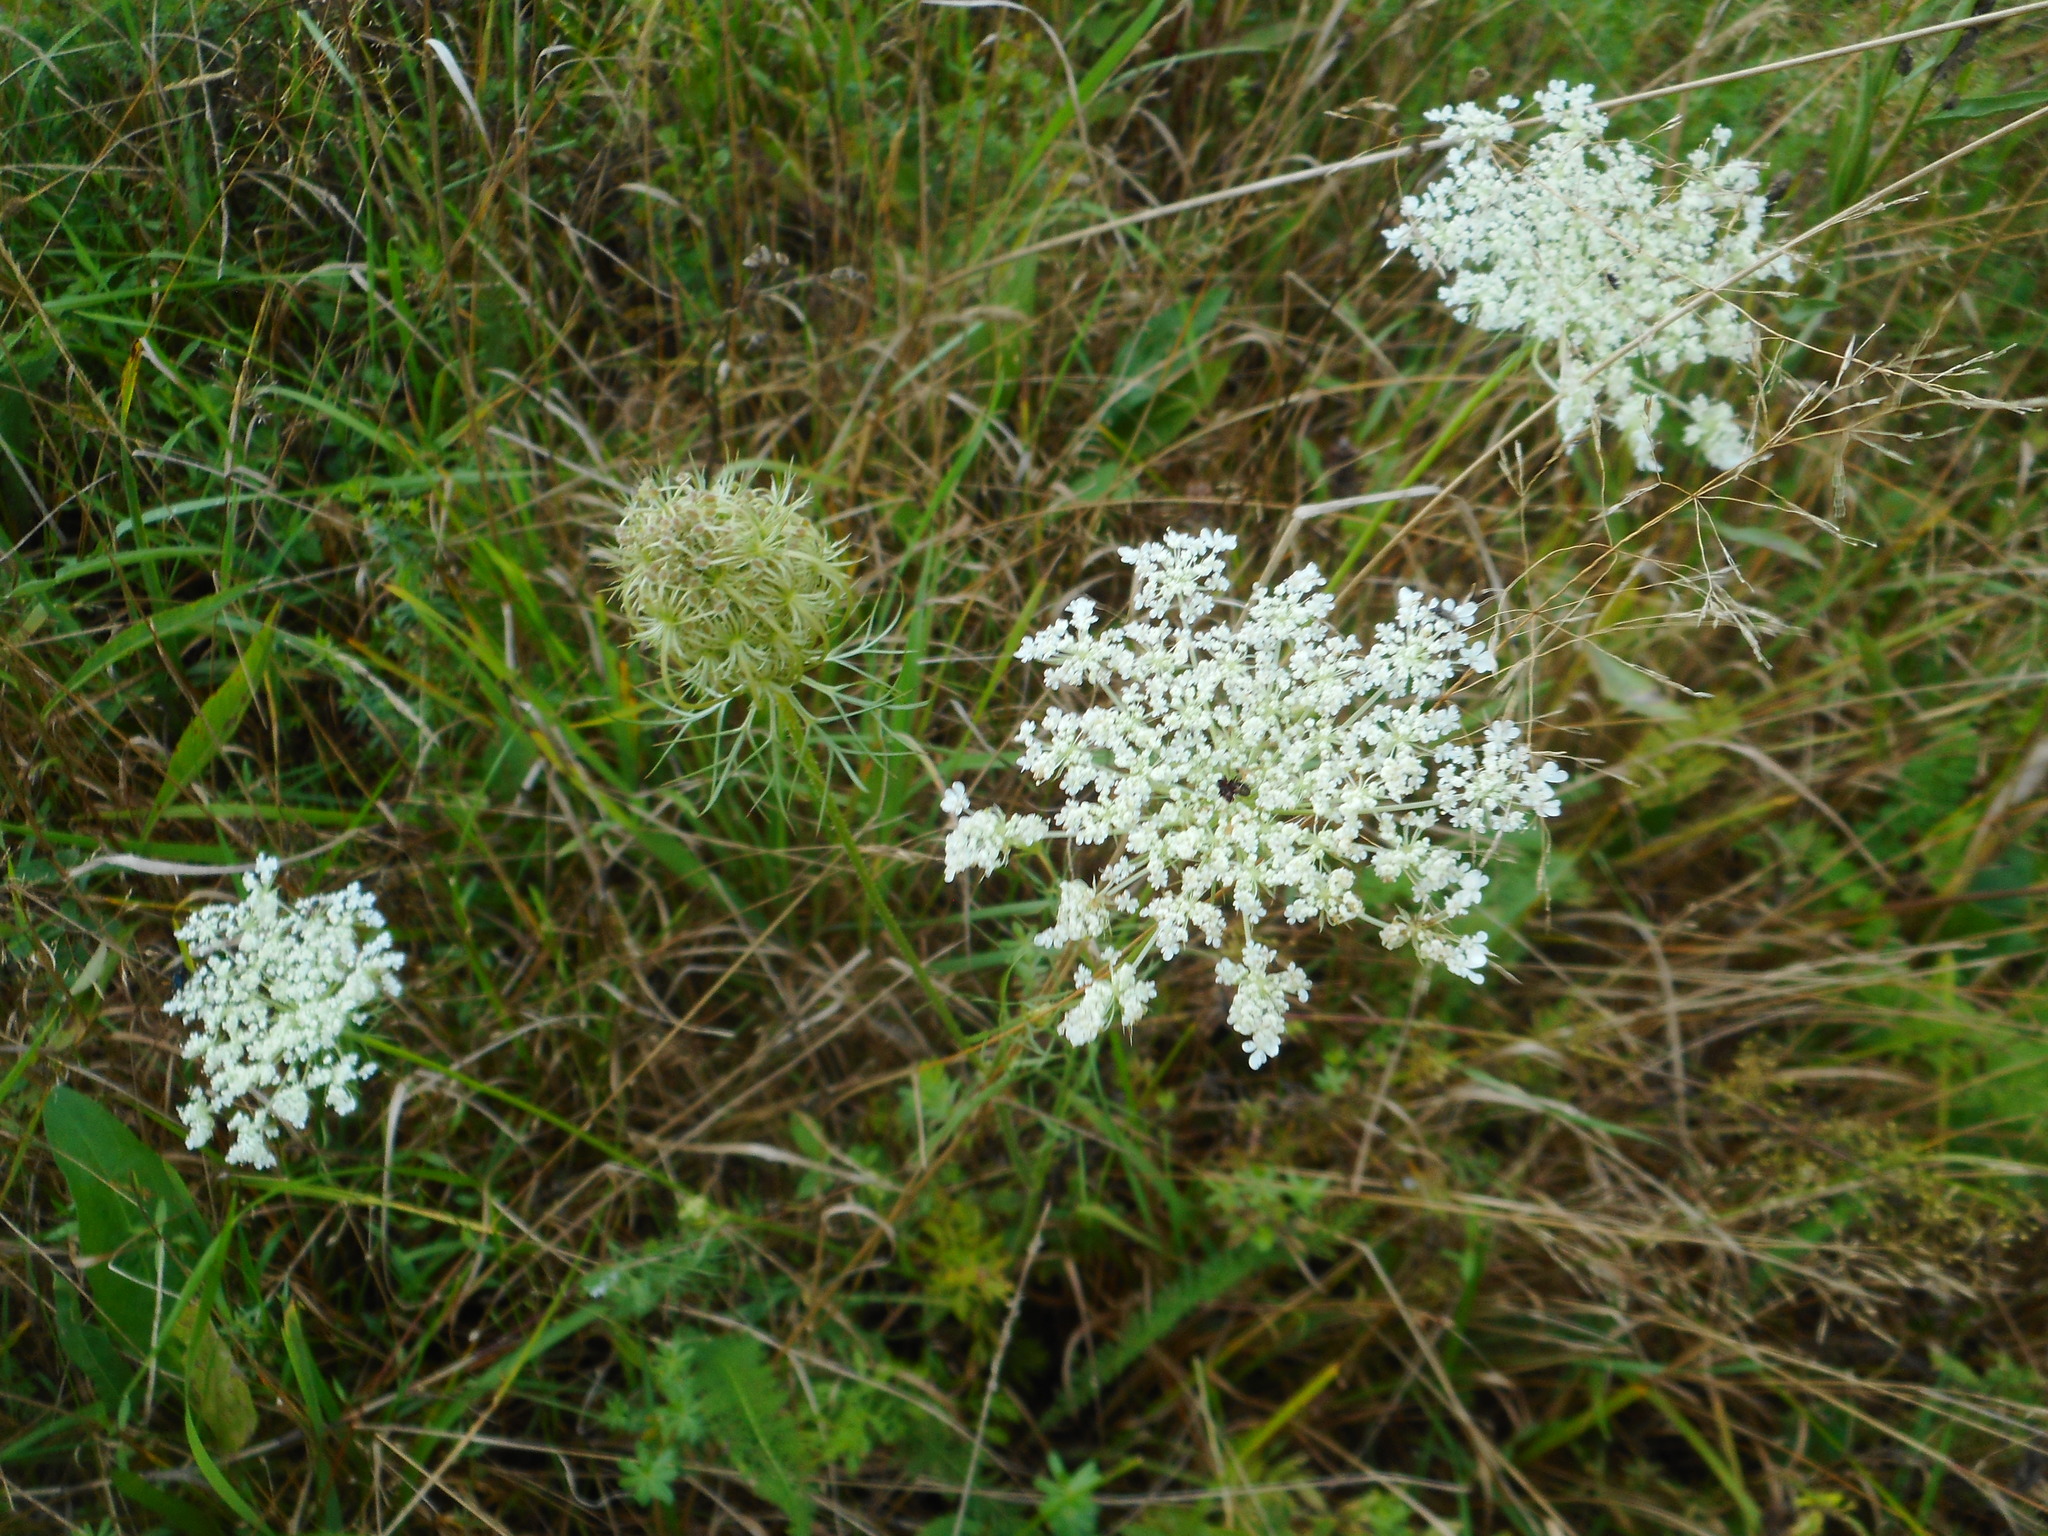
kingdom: Plantae
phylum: Tracheophyta
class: Magnoliopsida
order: Apiales
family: Apiaceae
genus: Daucus
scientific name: Daucus carota
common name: Wild carrot
